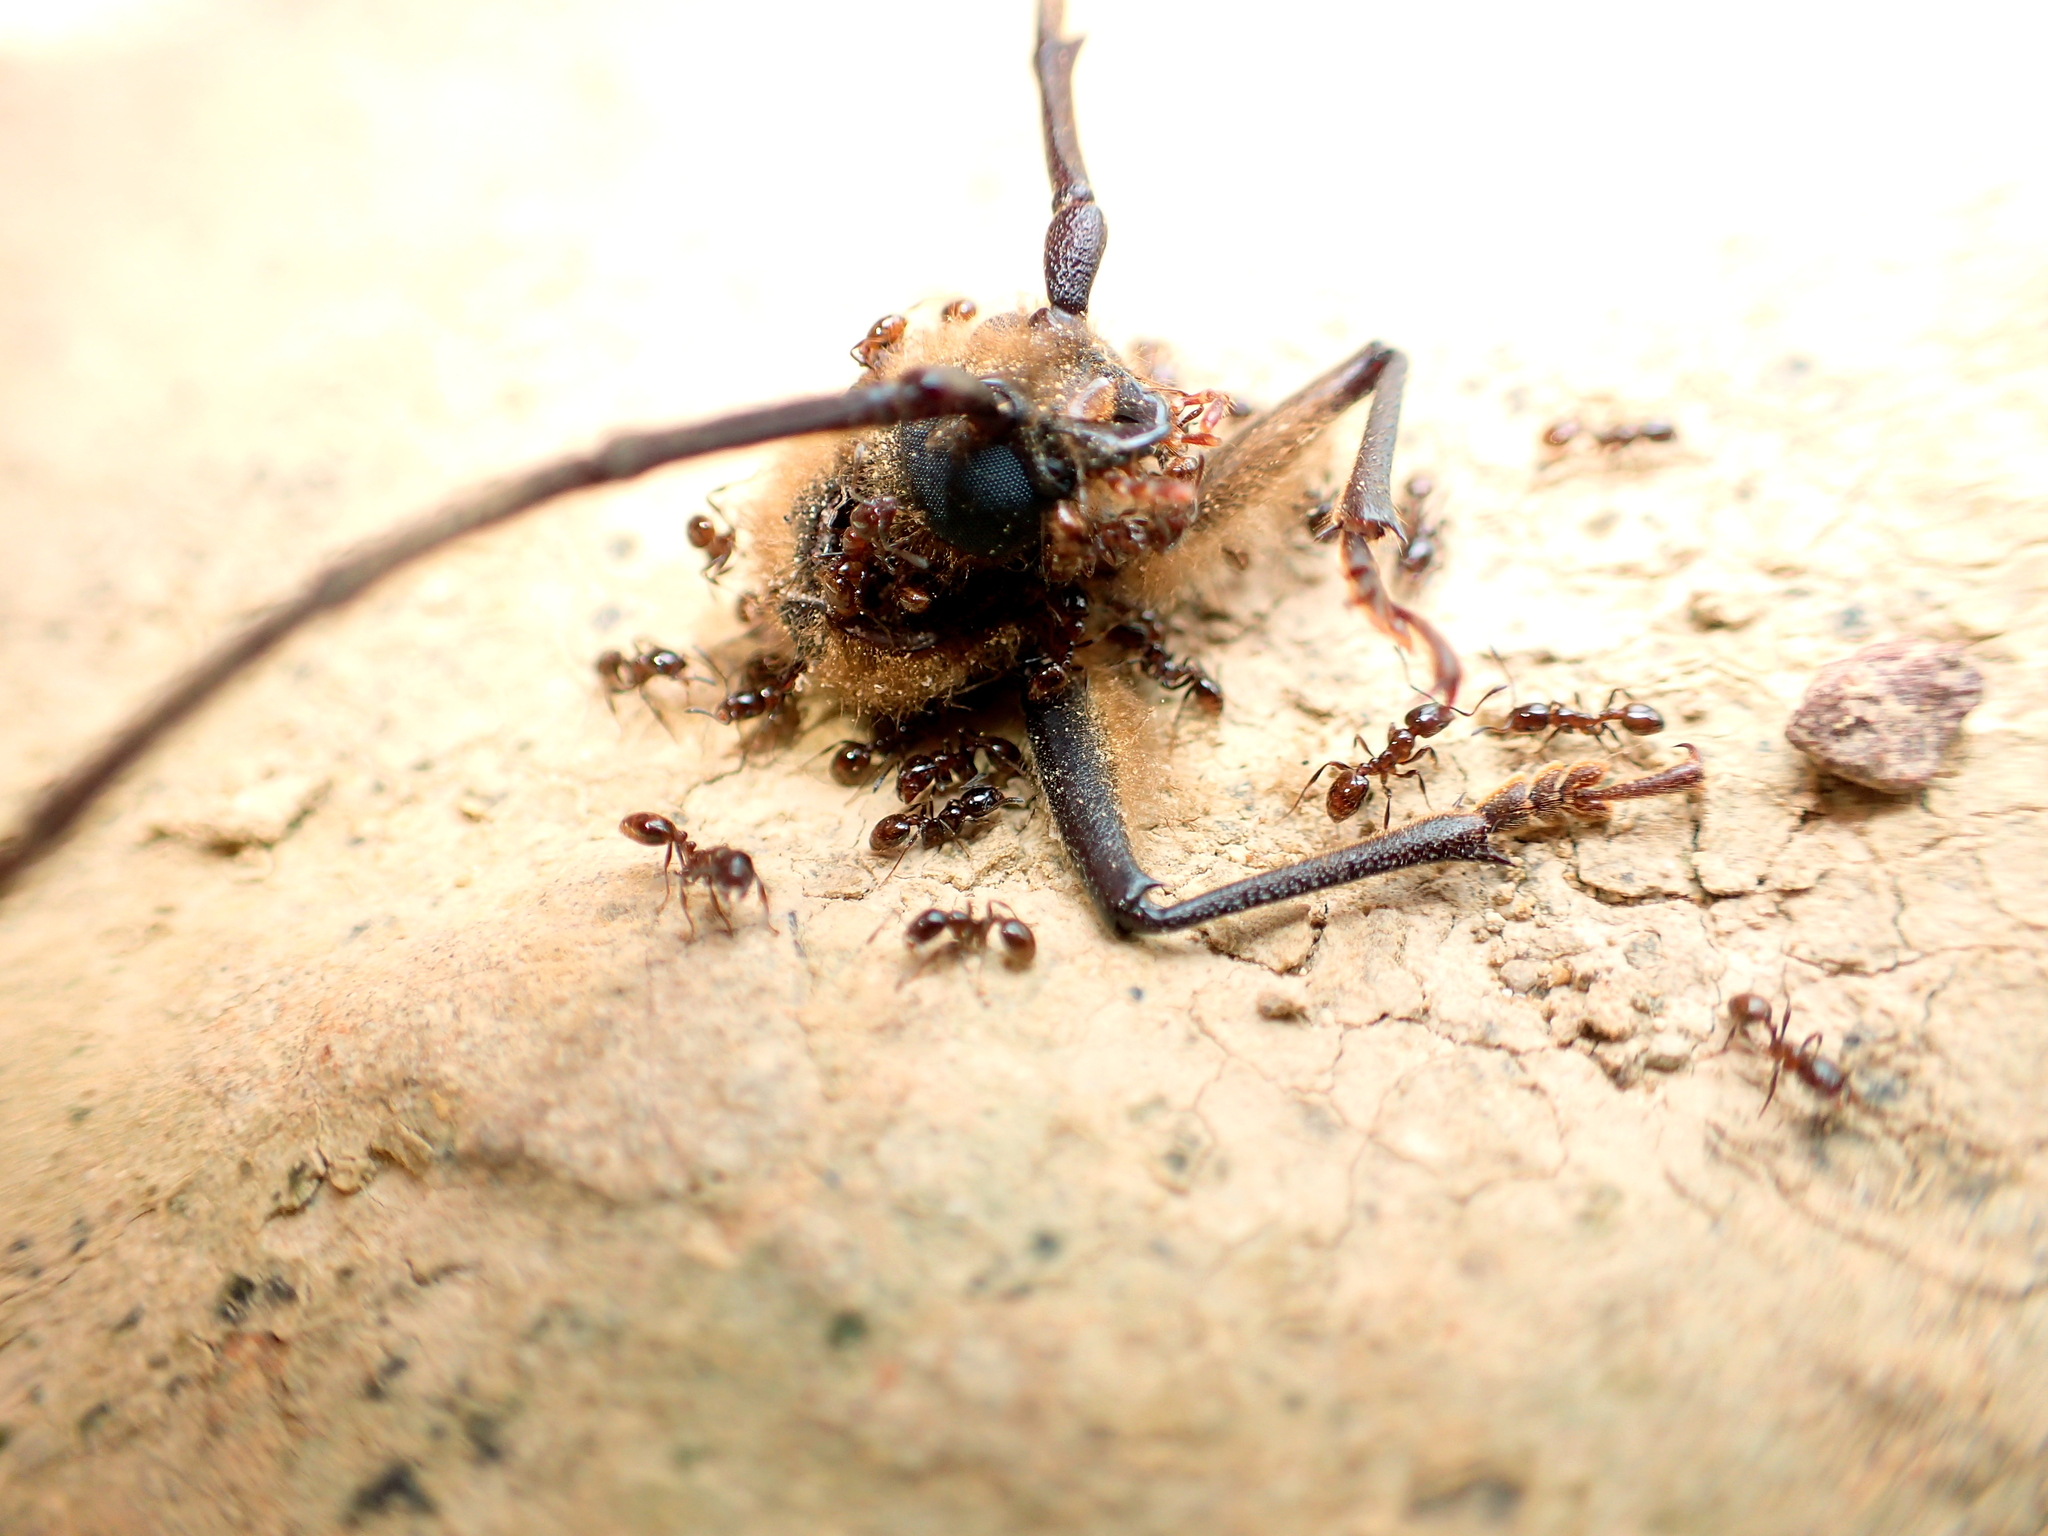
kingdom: Animalia
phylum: Arthropoda
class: Insecta
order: Coleoptera
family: Cerambycidae
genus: Prionoplus
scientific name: Prionoplus reticularis
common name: Huhu beetle
